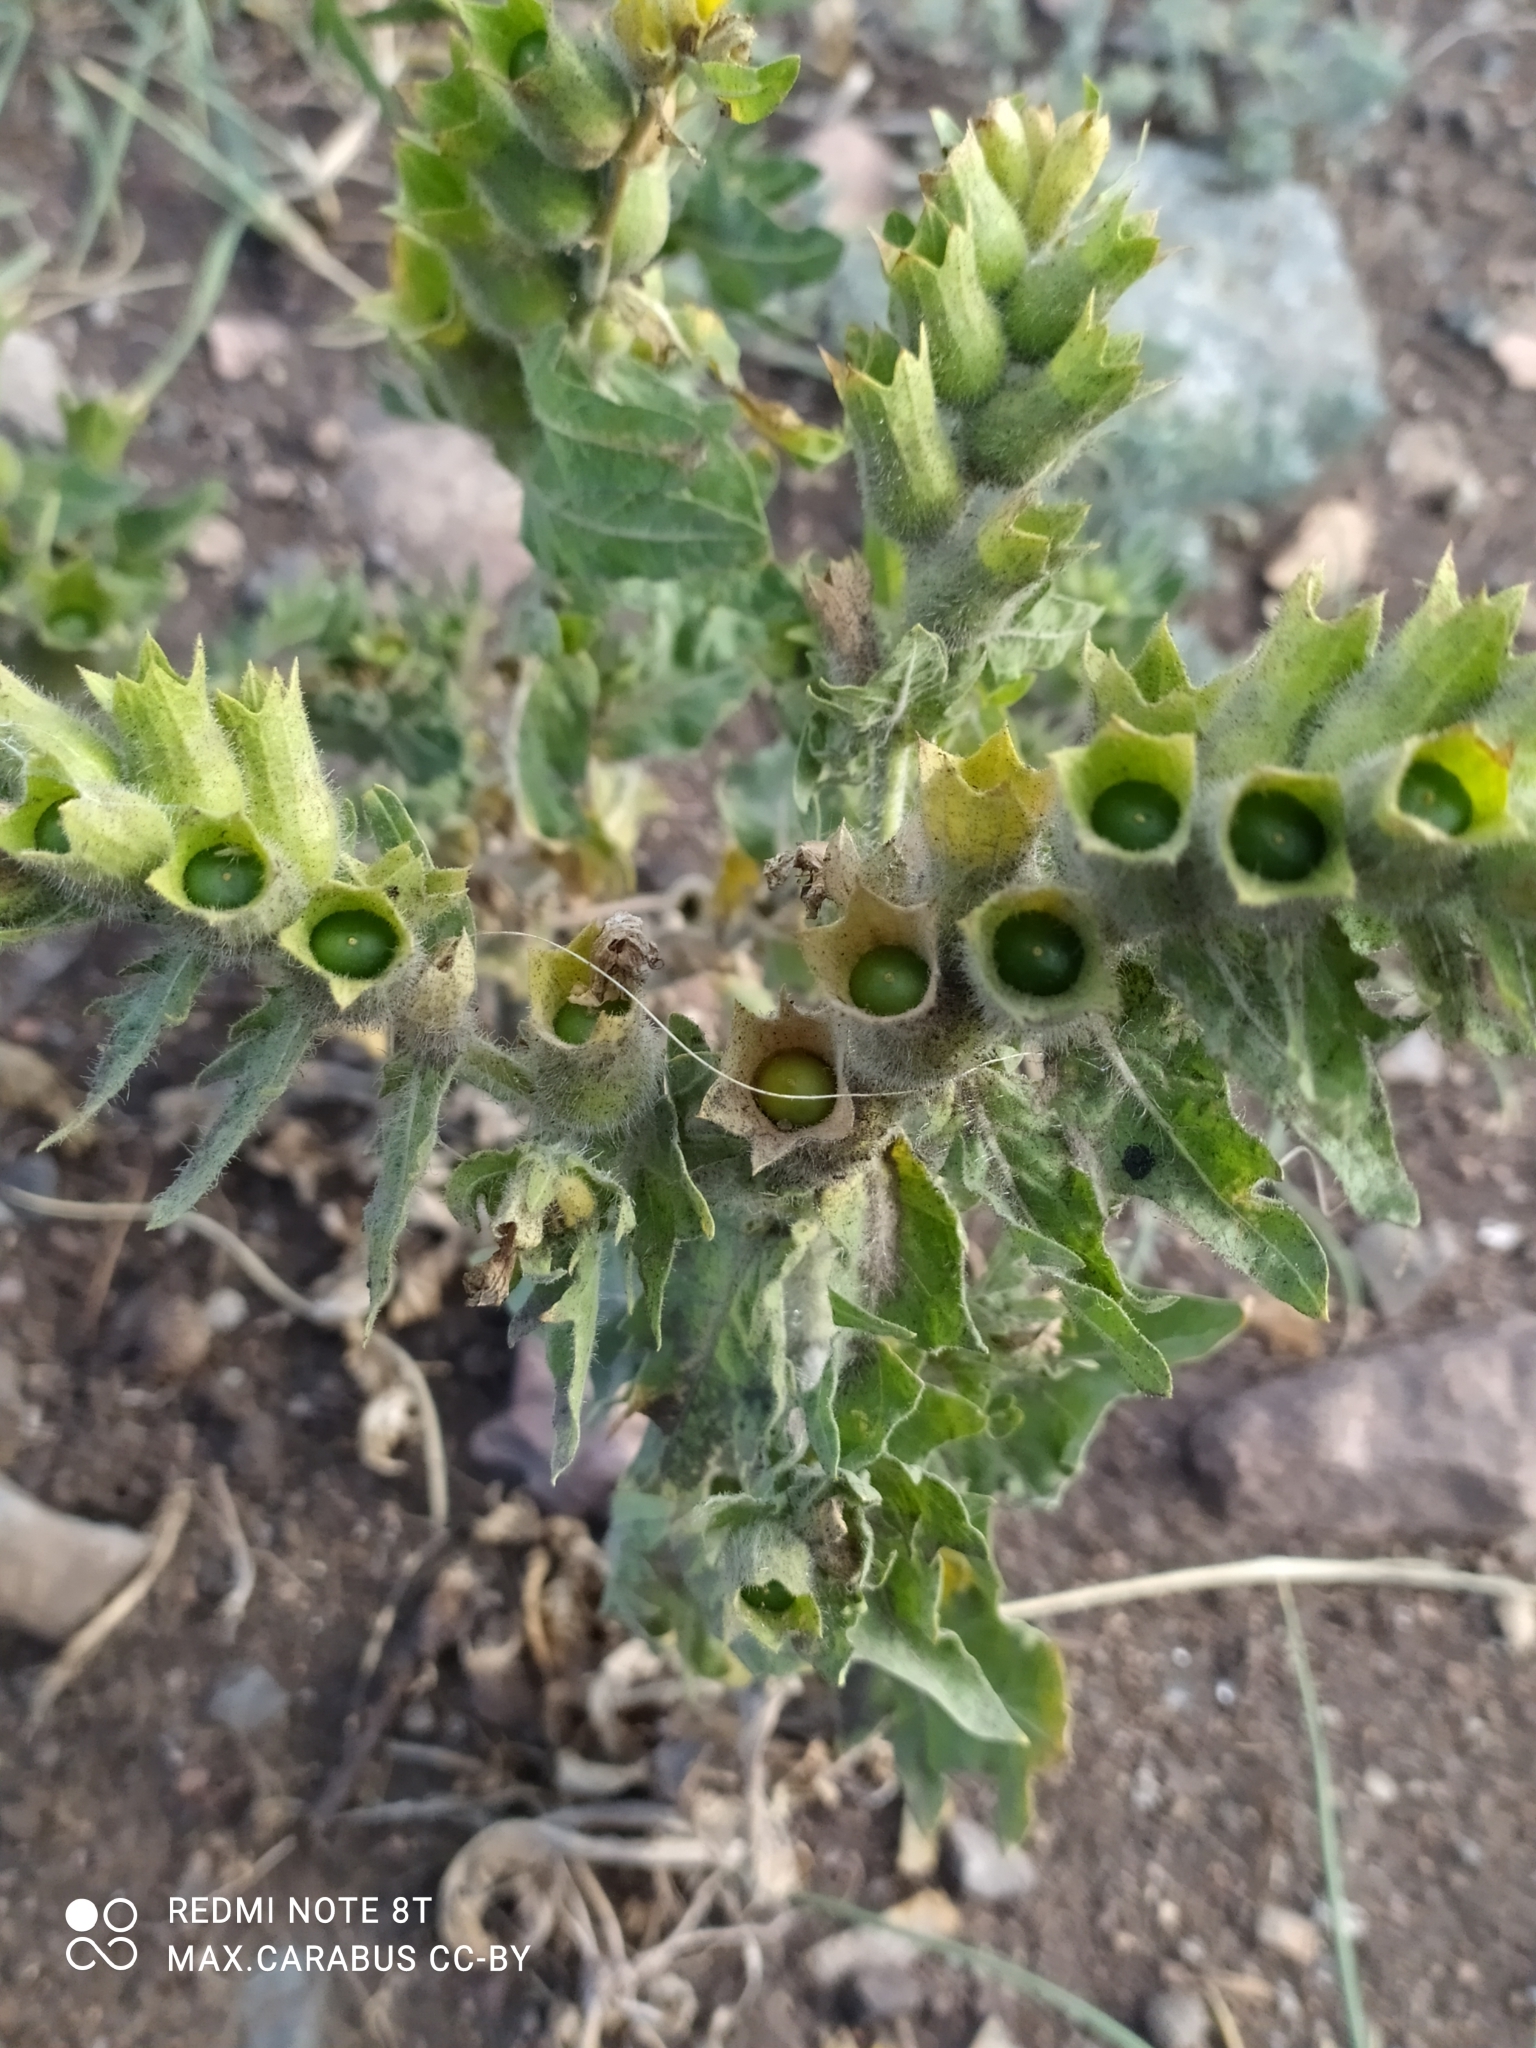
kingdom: Plantae
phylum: Tracheophyta
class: Magnoliopsida
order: Solanales
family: Solanaceae
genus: Hyoscyamus
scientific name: Hyoscyamus niger
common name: Henbane
